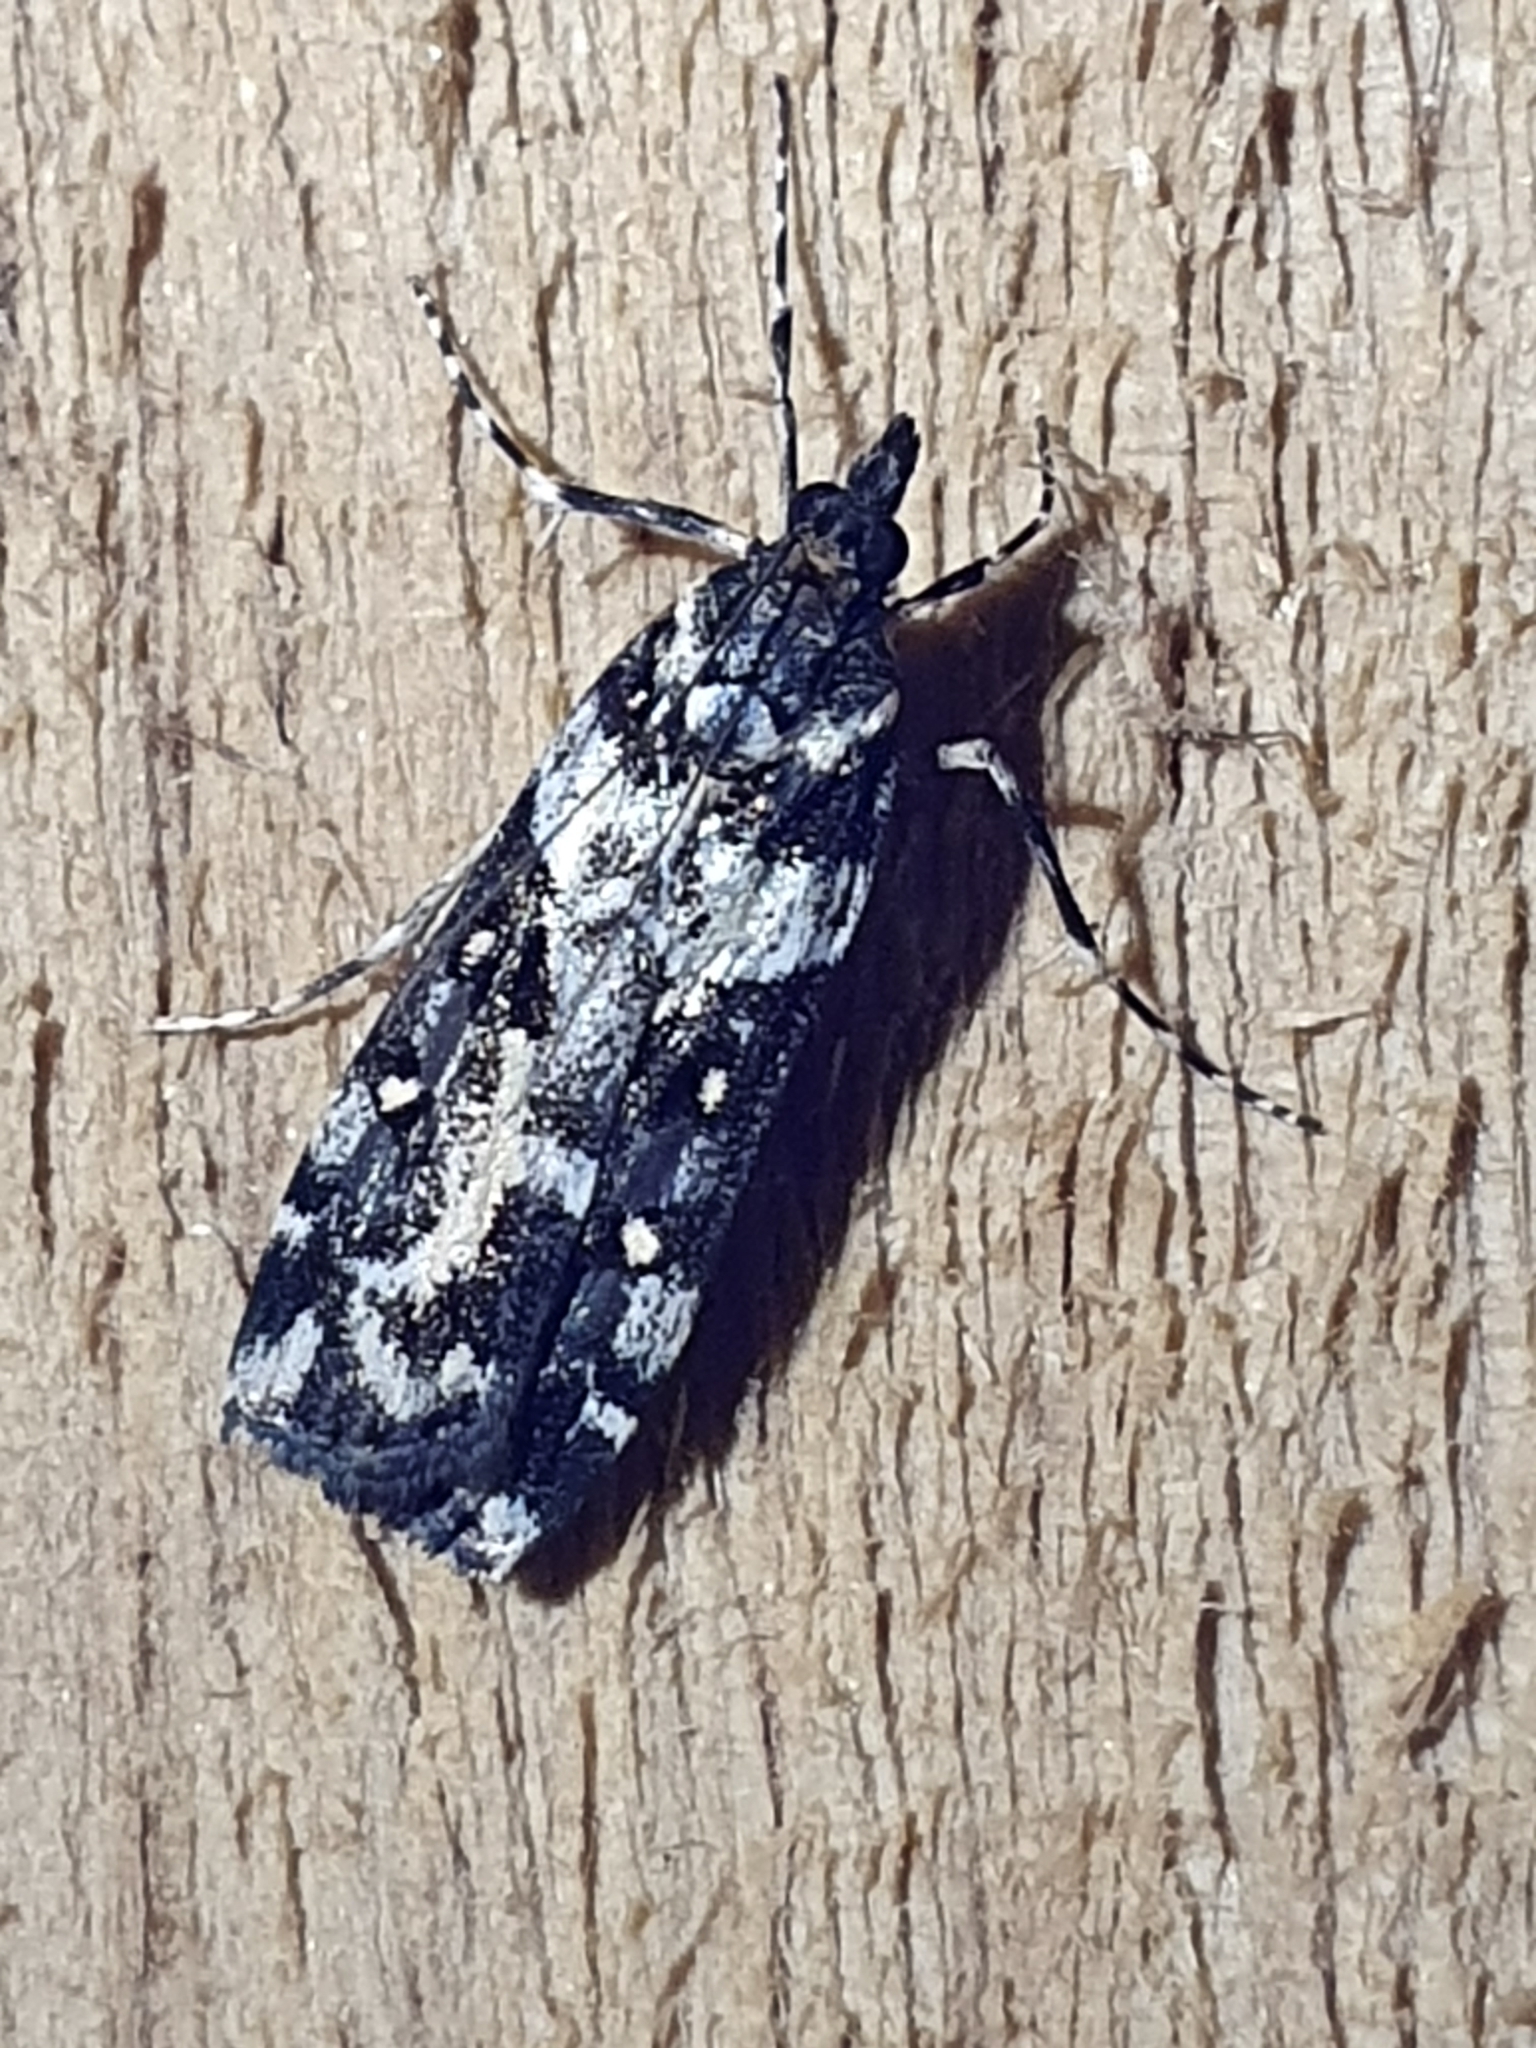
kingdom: Animalia
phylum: Arthropoda
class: Insecta
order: Lepidoptera
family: Crambidae
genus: Eudonia
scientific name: Eudonia diphtheralis
